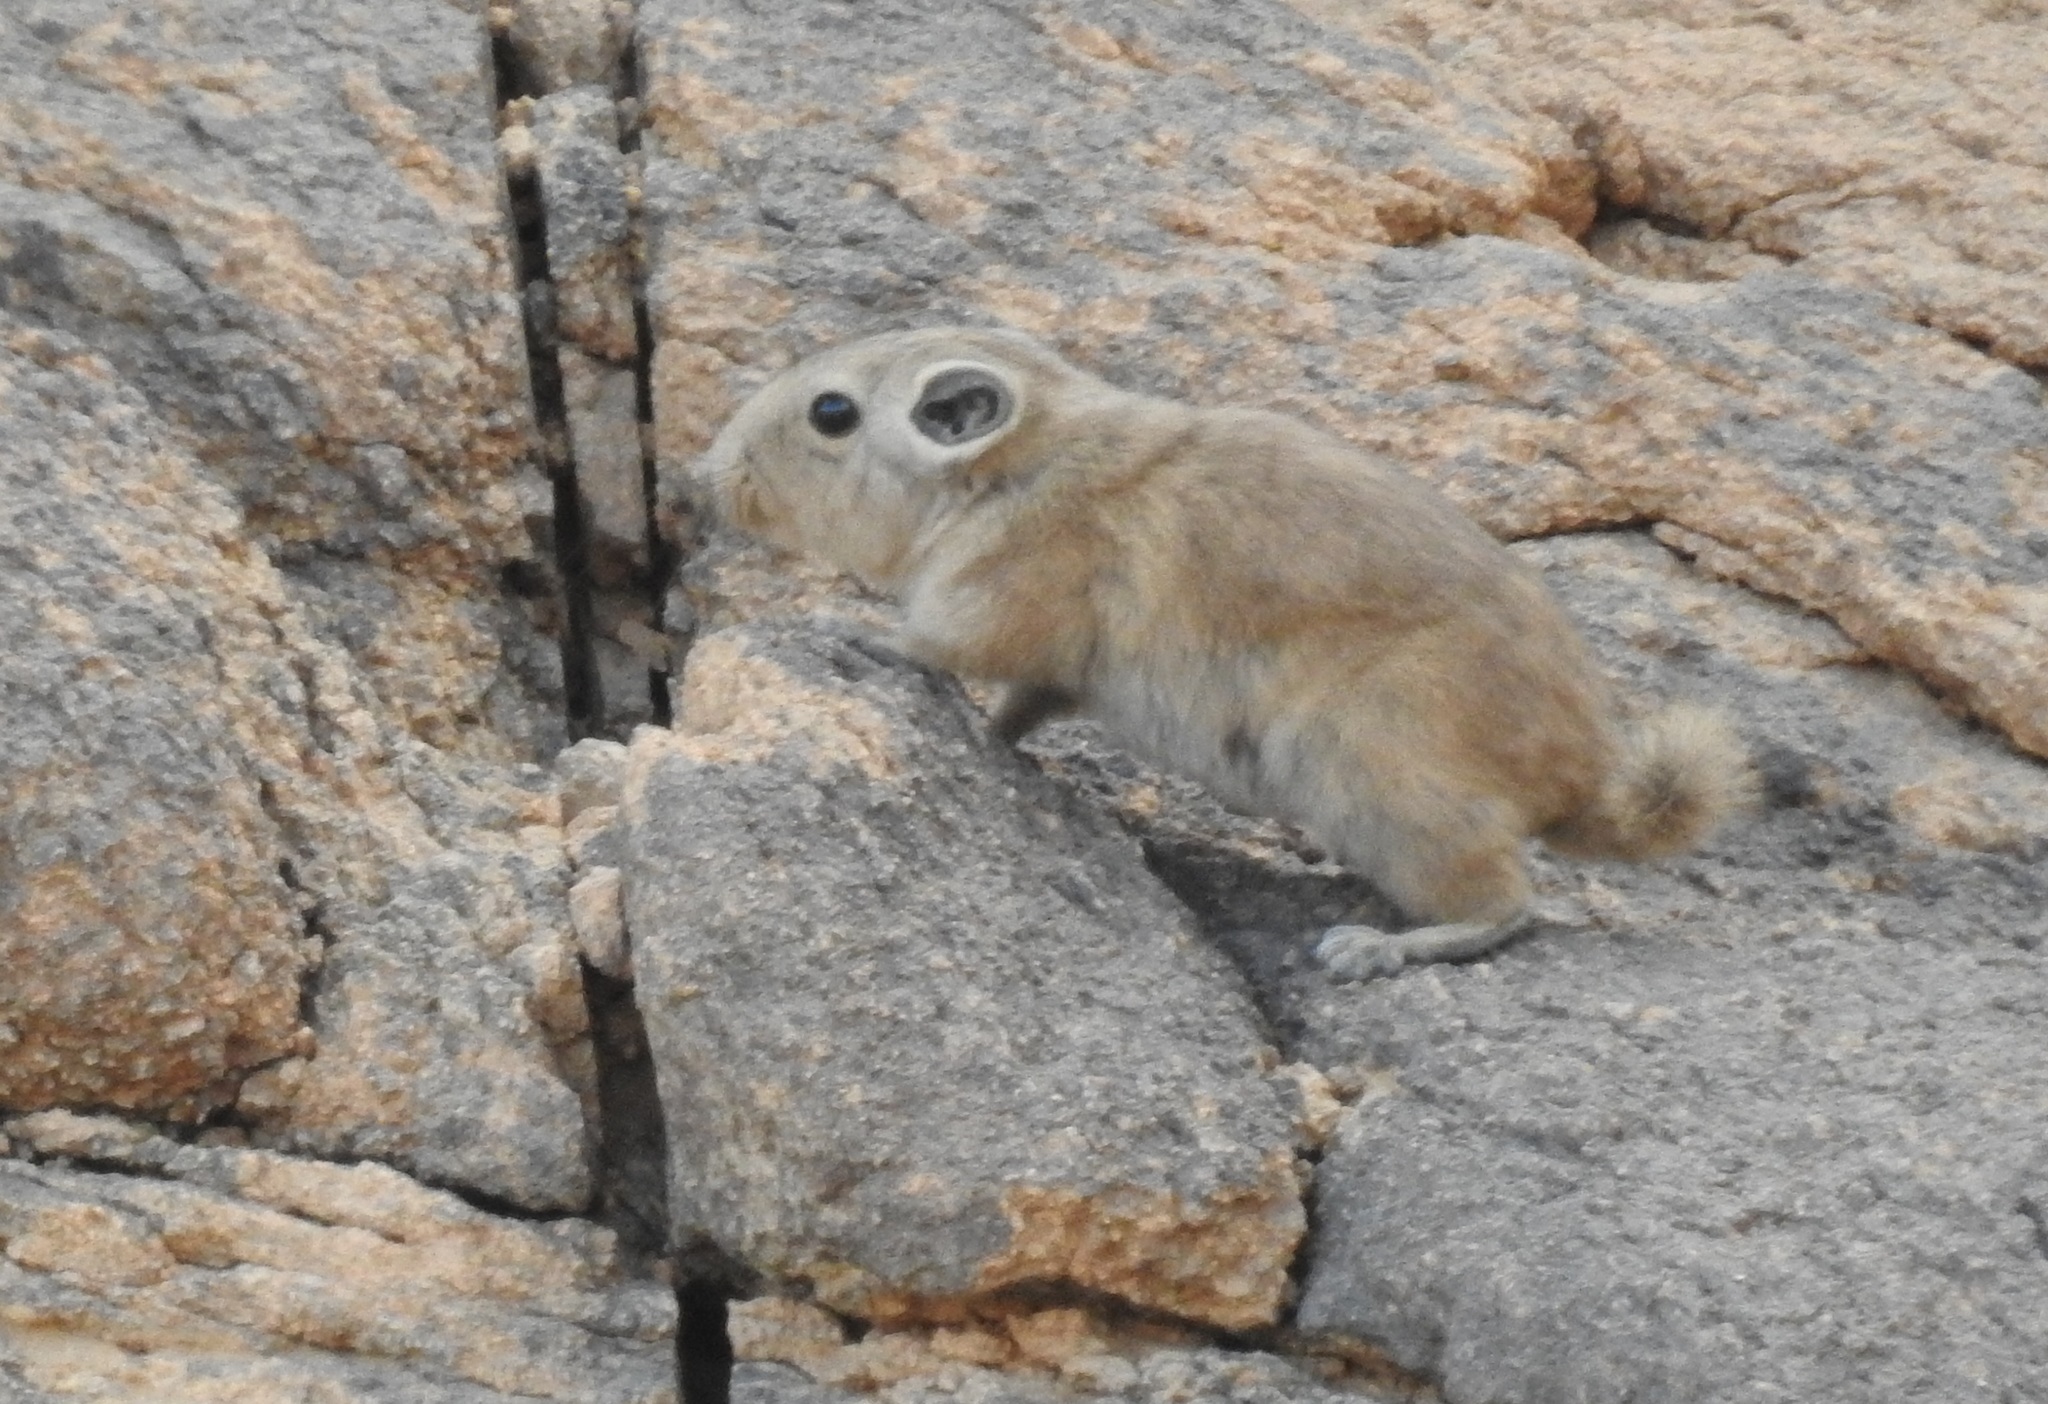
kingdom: Animalia
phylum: Chordata
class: Mammalia
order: Rodentia
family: Ctenodactylidae
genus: Massoutiera
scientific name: Massoutiera mzabi
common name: Mzab gundi
